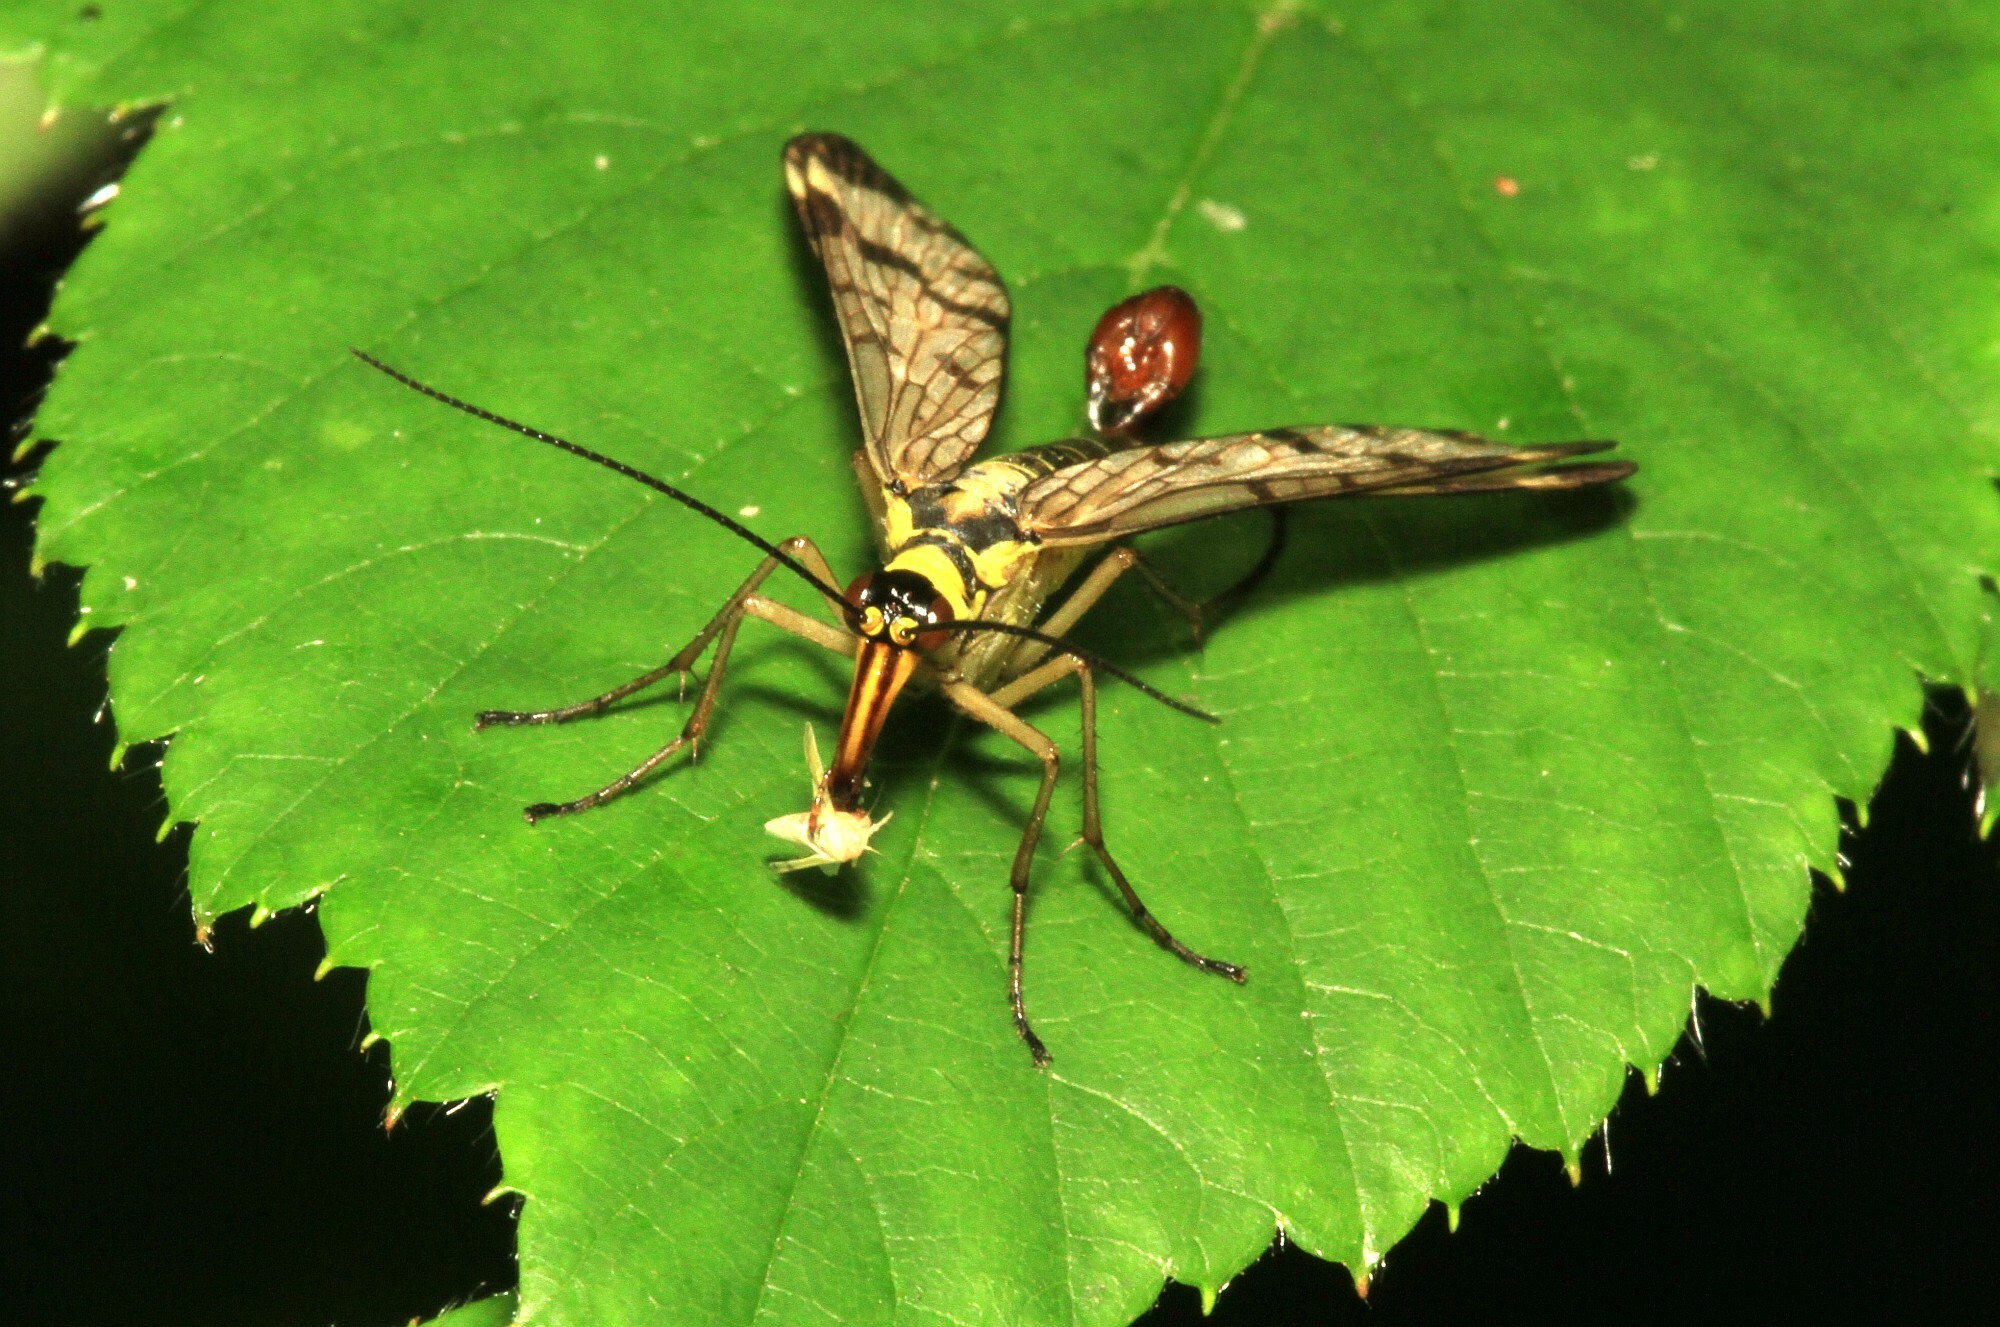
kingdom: Animalia
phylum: Arthropoda
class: Insecta
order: Mecoptera
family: Panorpidae
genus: Panorpa
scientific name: Panorpa communis
